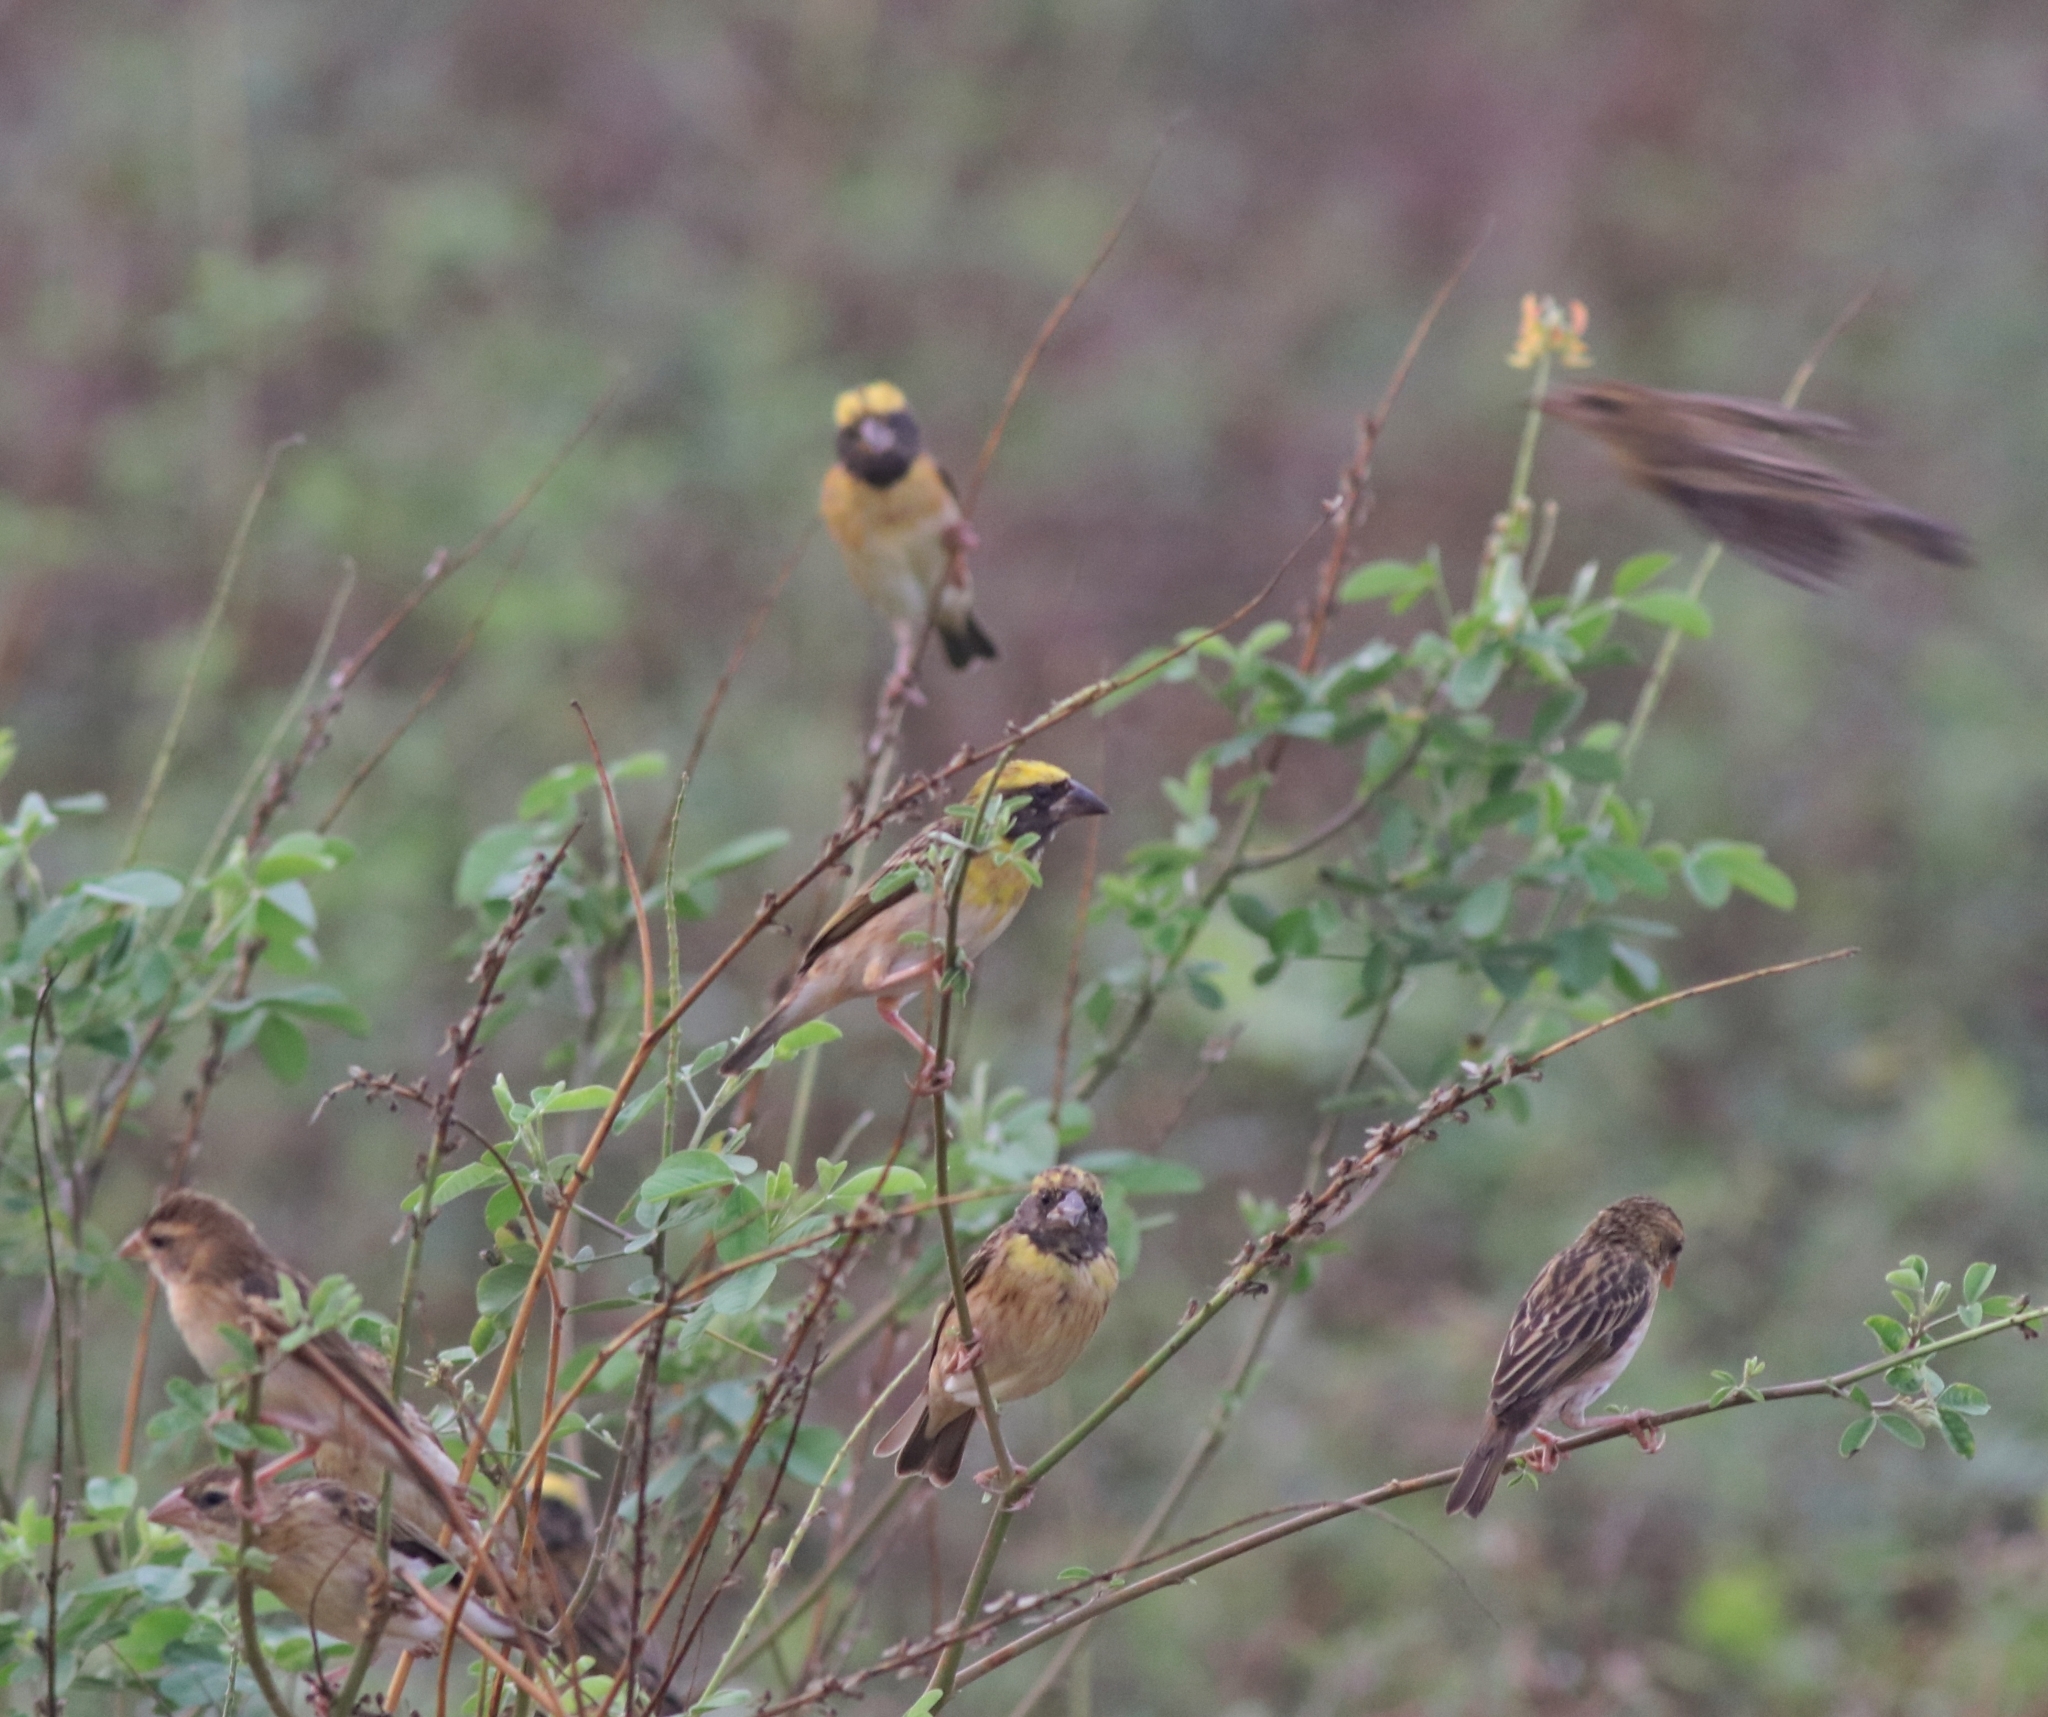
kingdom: Animalia
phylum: Chordata
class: Aves
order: Passeriformes
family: Ploceidae
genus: Ploceus
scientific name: Ploceus philippinus
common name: Baya weaver
